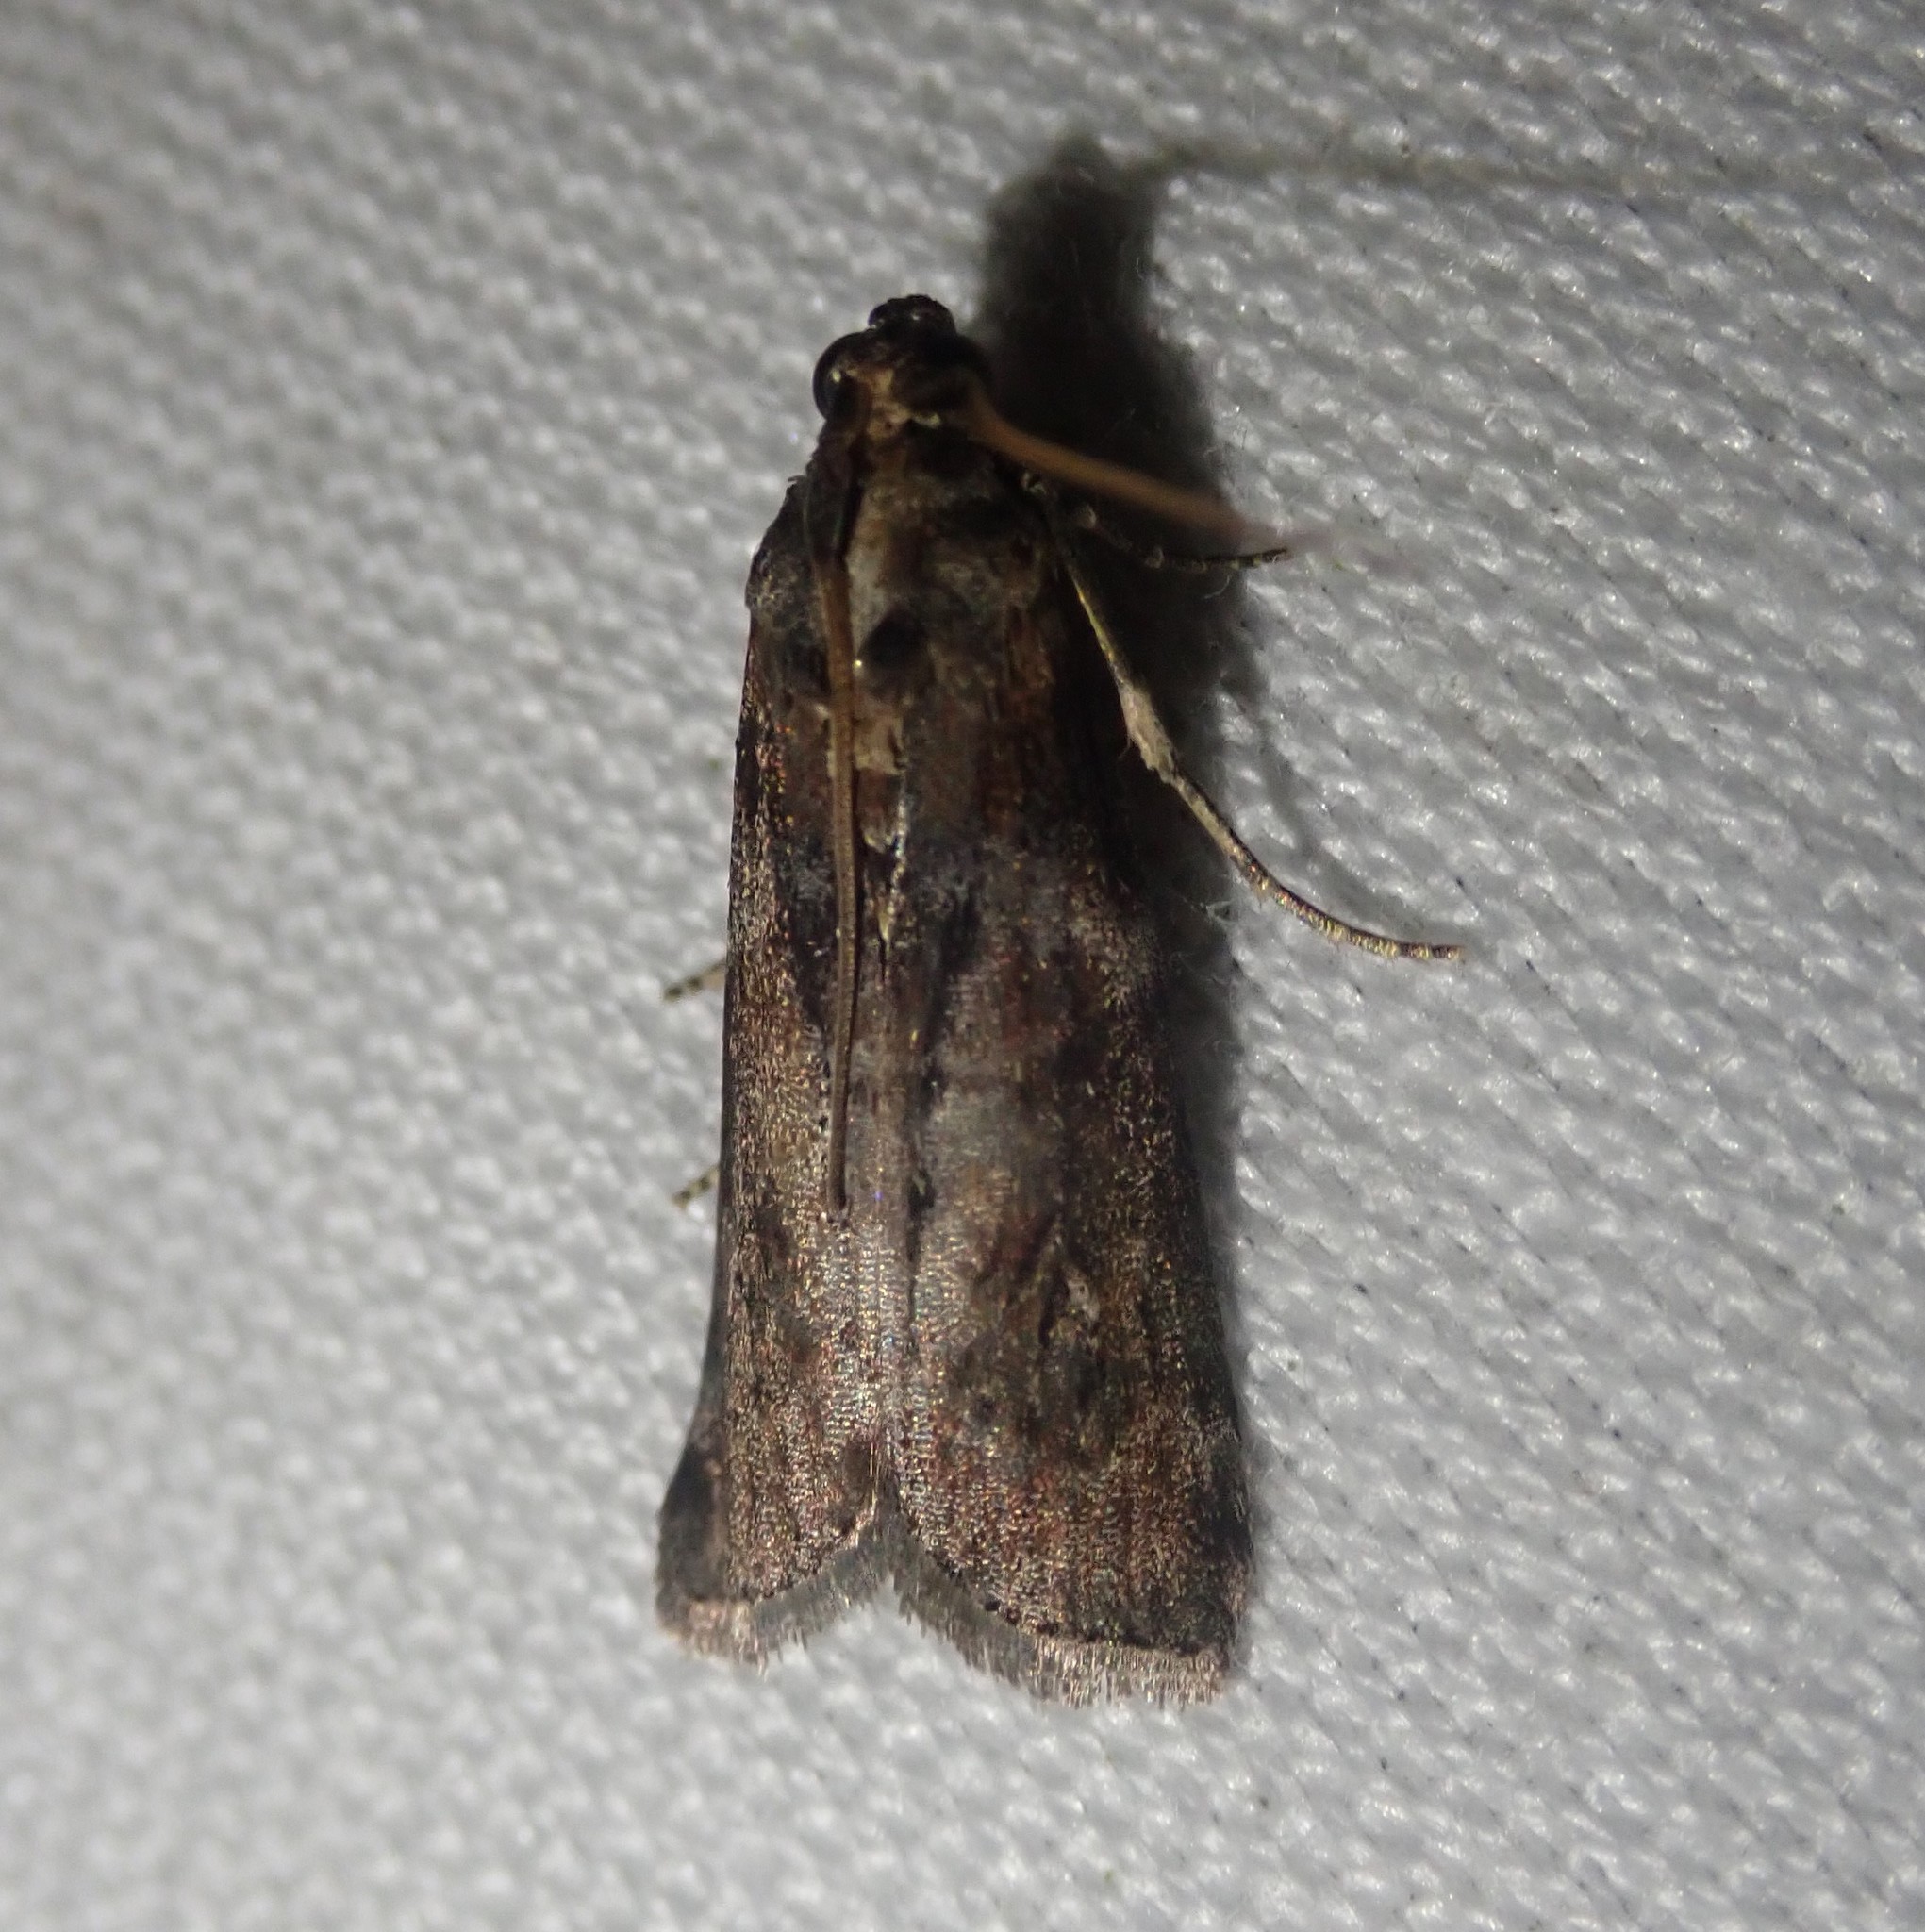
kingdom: Animalia
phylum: Arthropoda
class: Insecta
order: Lepidoptera
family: Pyralidae
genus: Phycita
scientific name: Phycita roborella
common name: Dotted oak knot-horn
